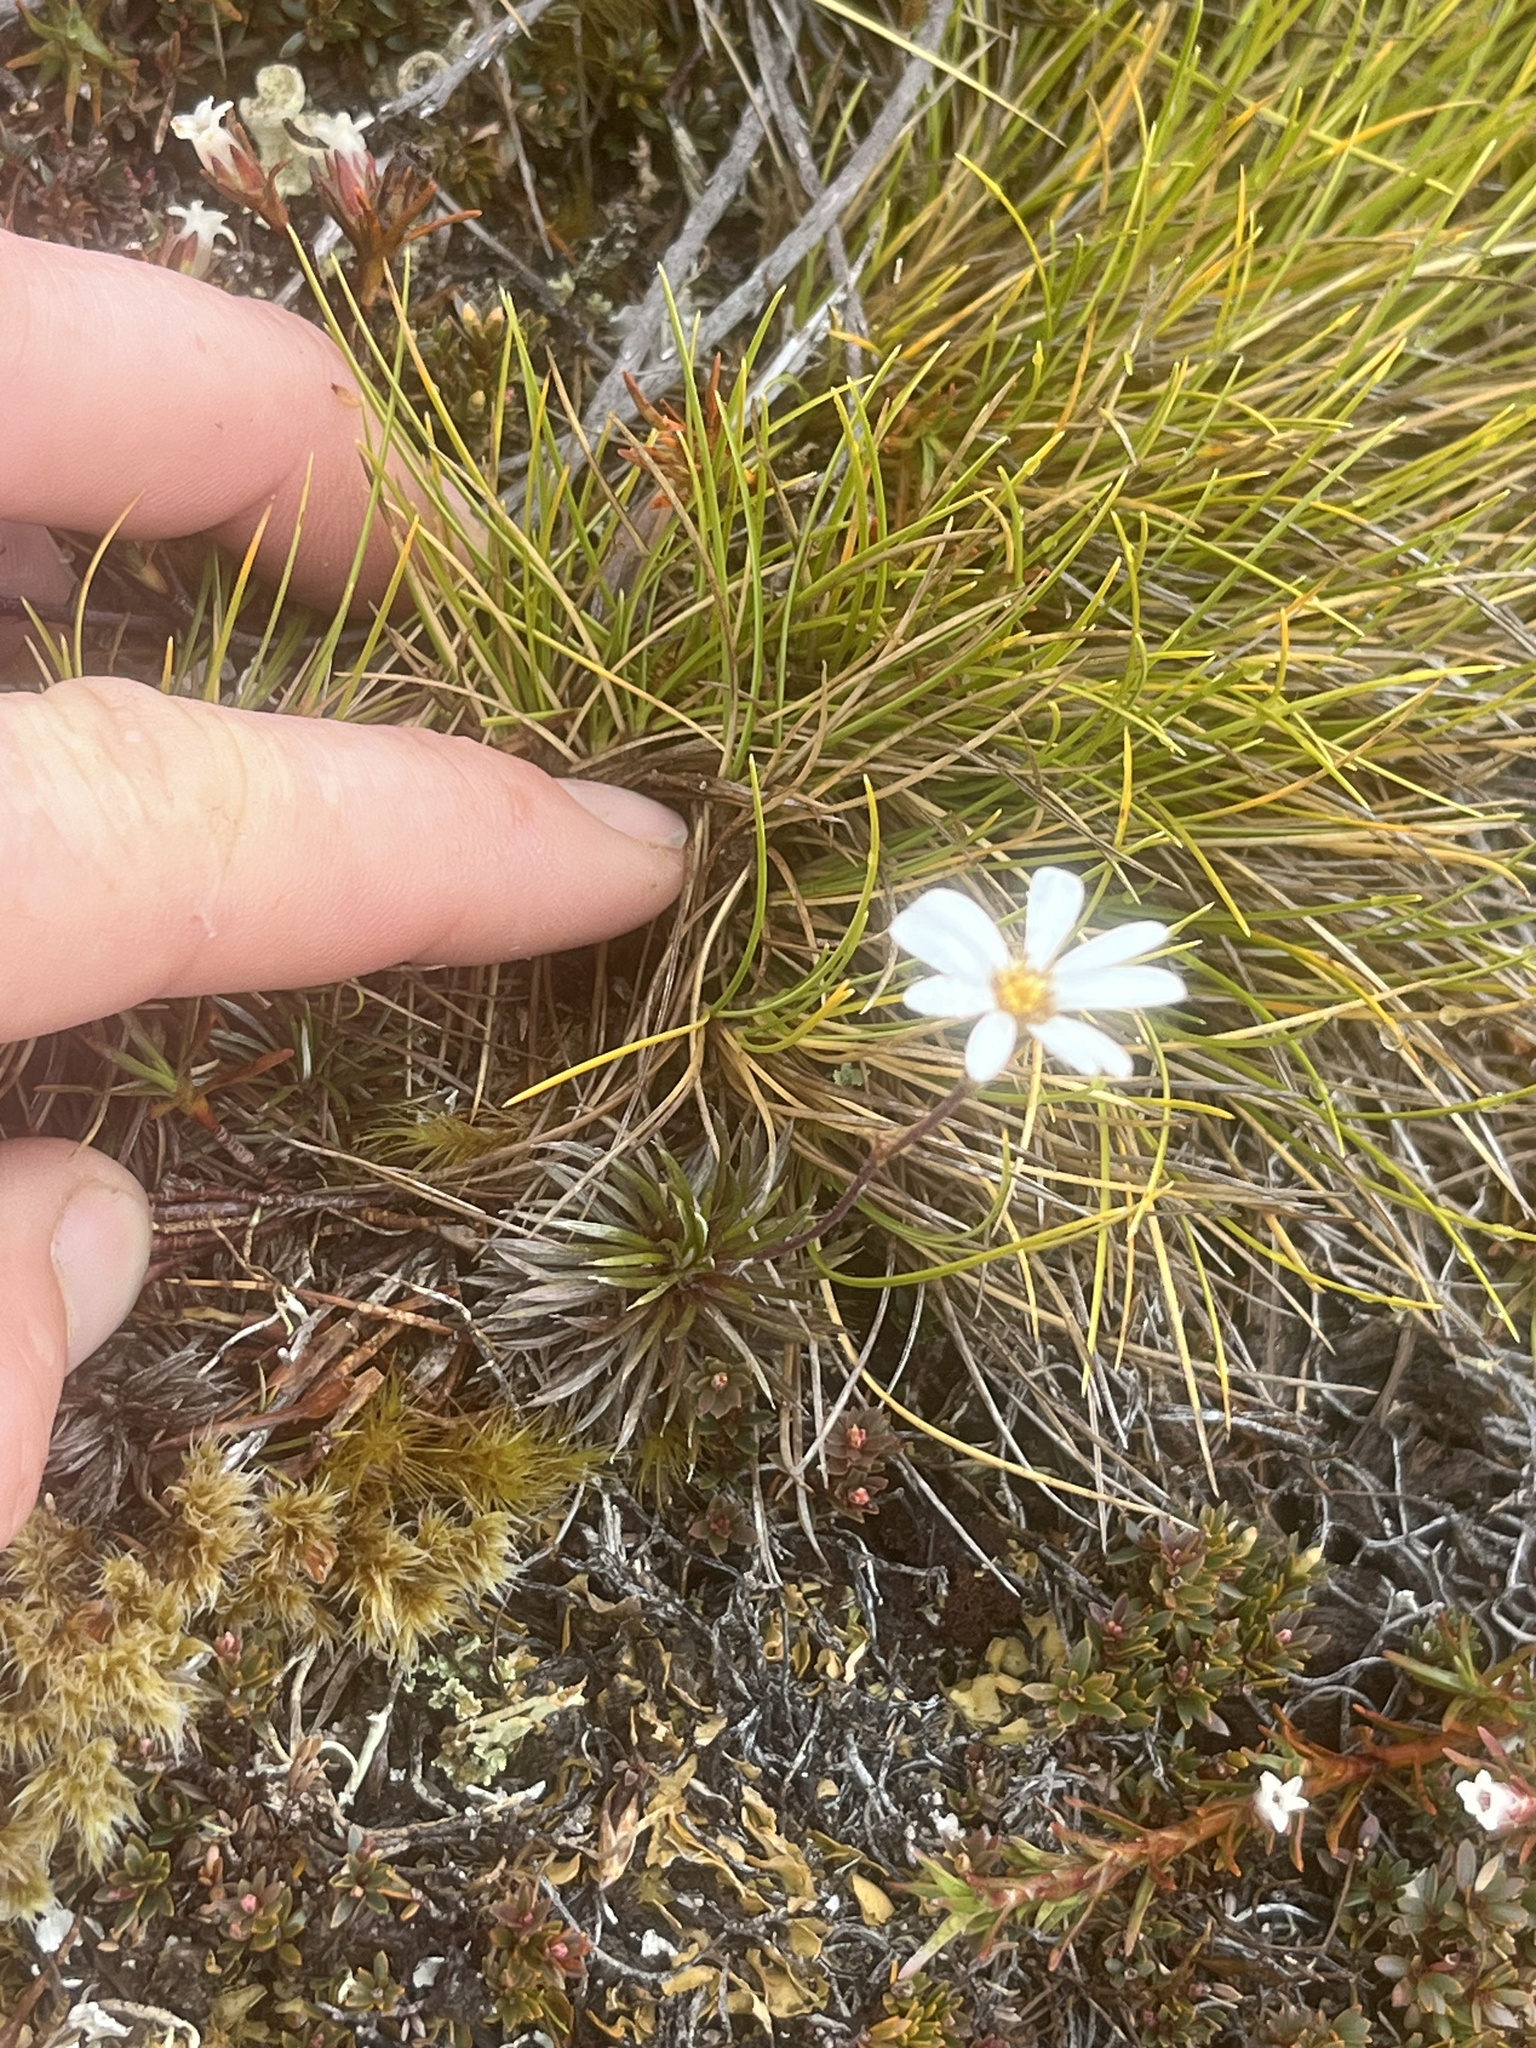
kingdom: Plantae
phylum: Tracheophyta
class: Magnoliopsida
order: Asterales
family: Asteraceae
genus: Celmisia
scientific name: Celmisia laricifolia
